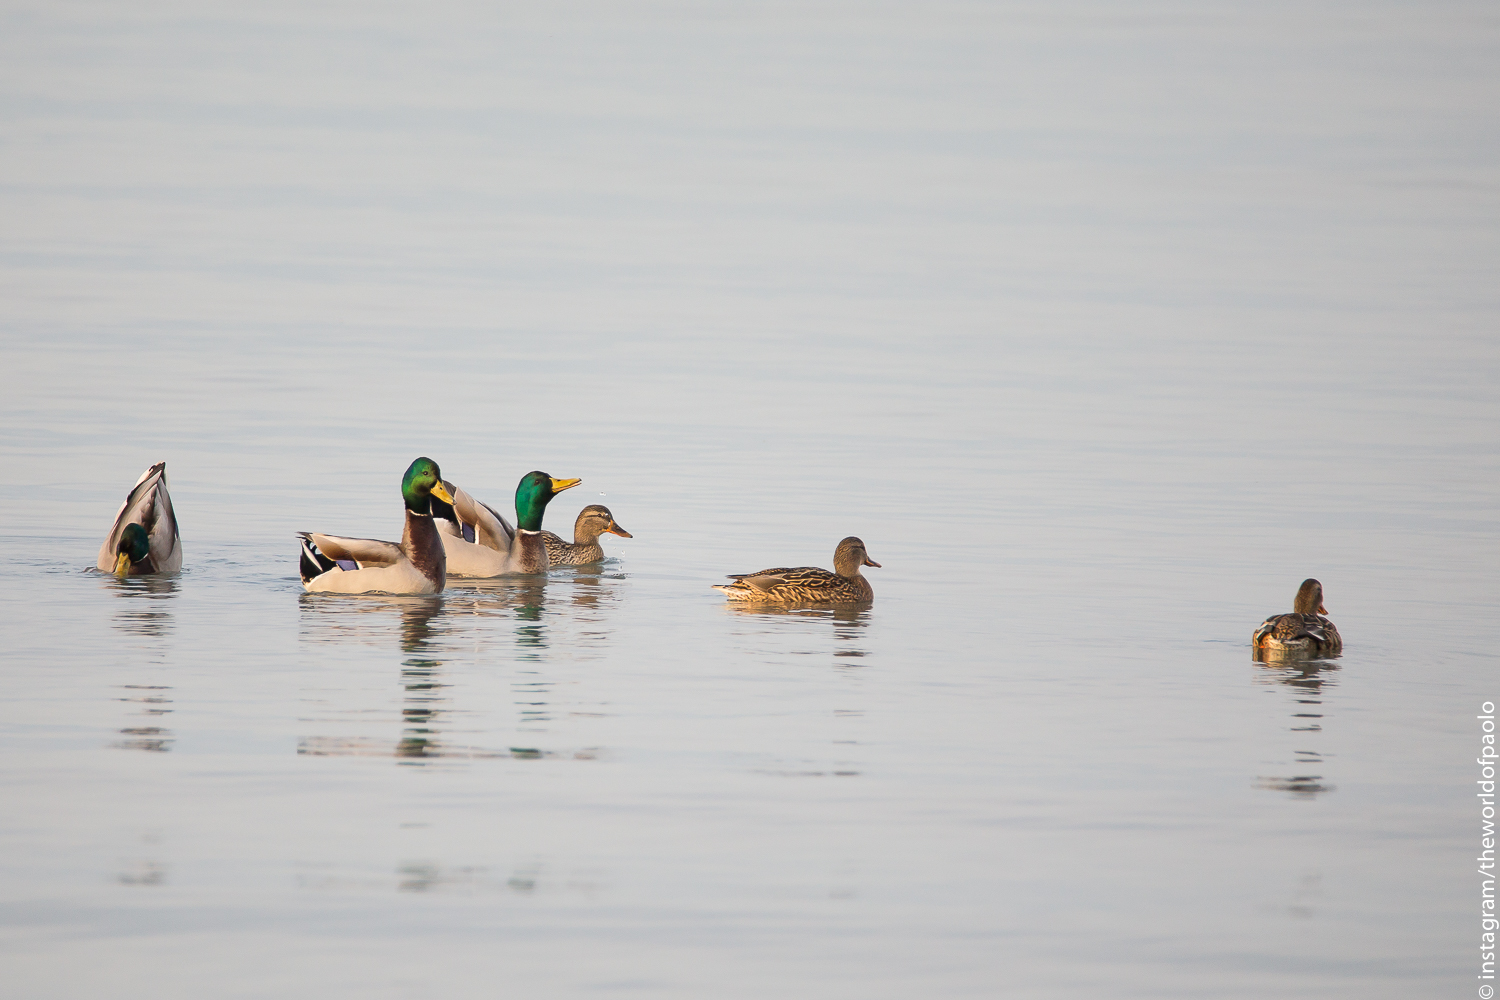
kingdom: Animalia
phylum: Chordata
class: Aves
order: Anseriformes
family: Anatidae
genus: Anas
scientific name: Anas platyrhynchos
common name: Mallard
